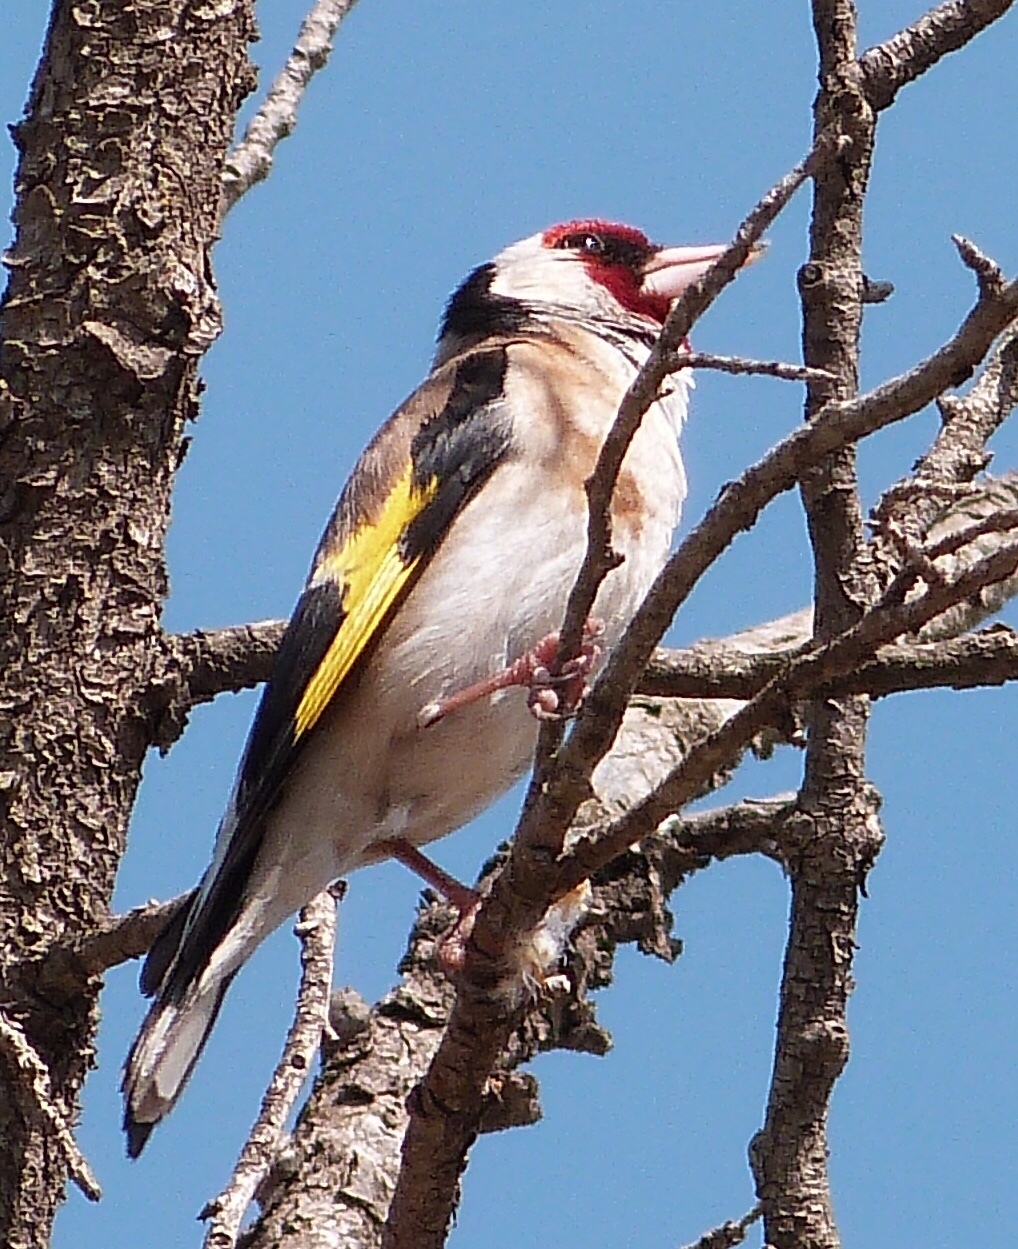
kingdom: Animalia
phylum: Chordata
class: Aves
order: Passeriformes
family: Fringillidae
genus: Carduelis
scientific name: Carduelis carduelis
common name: European goldfinch
